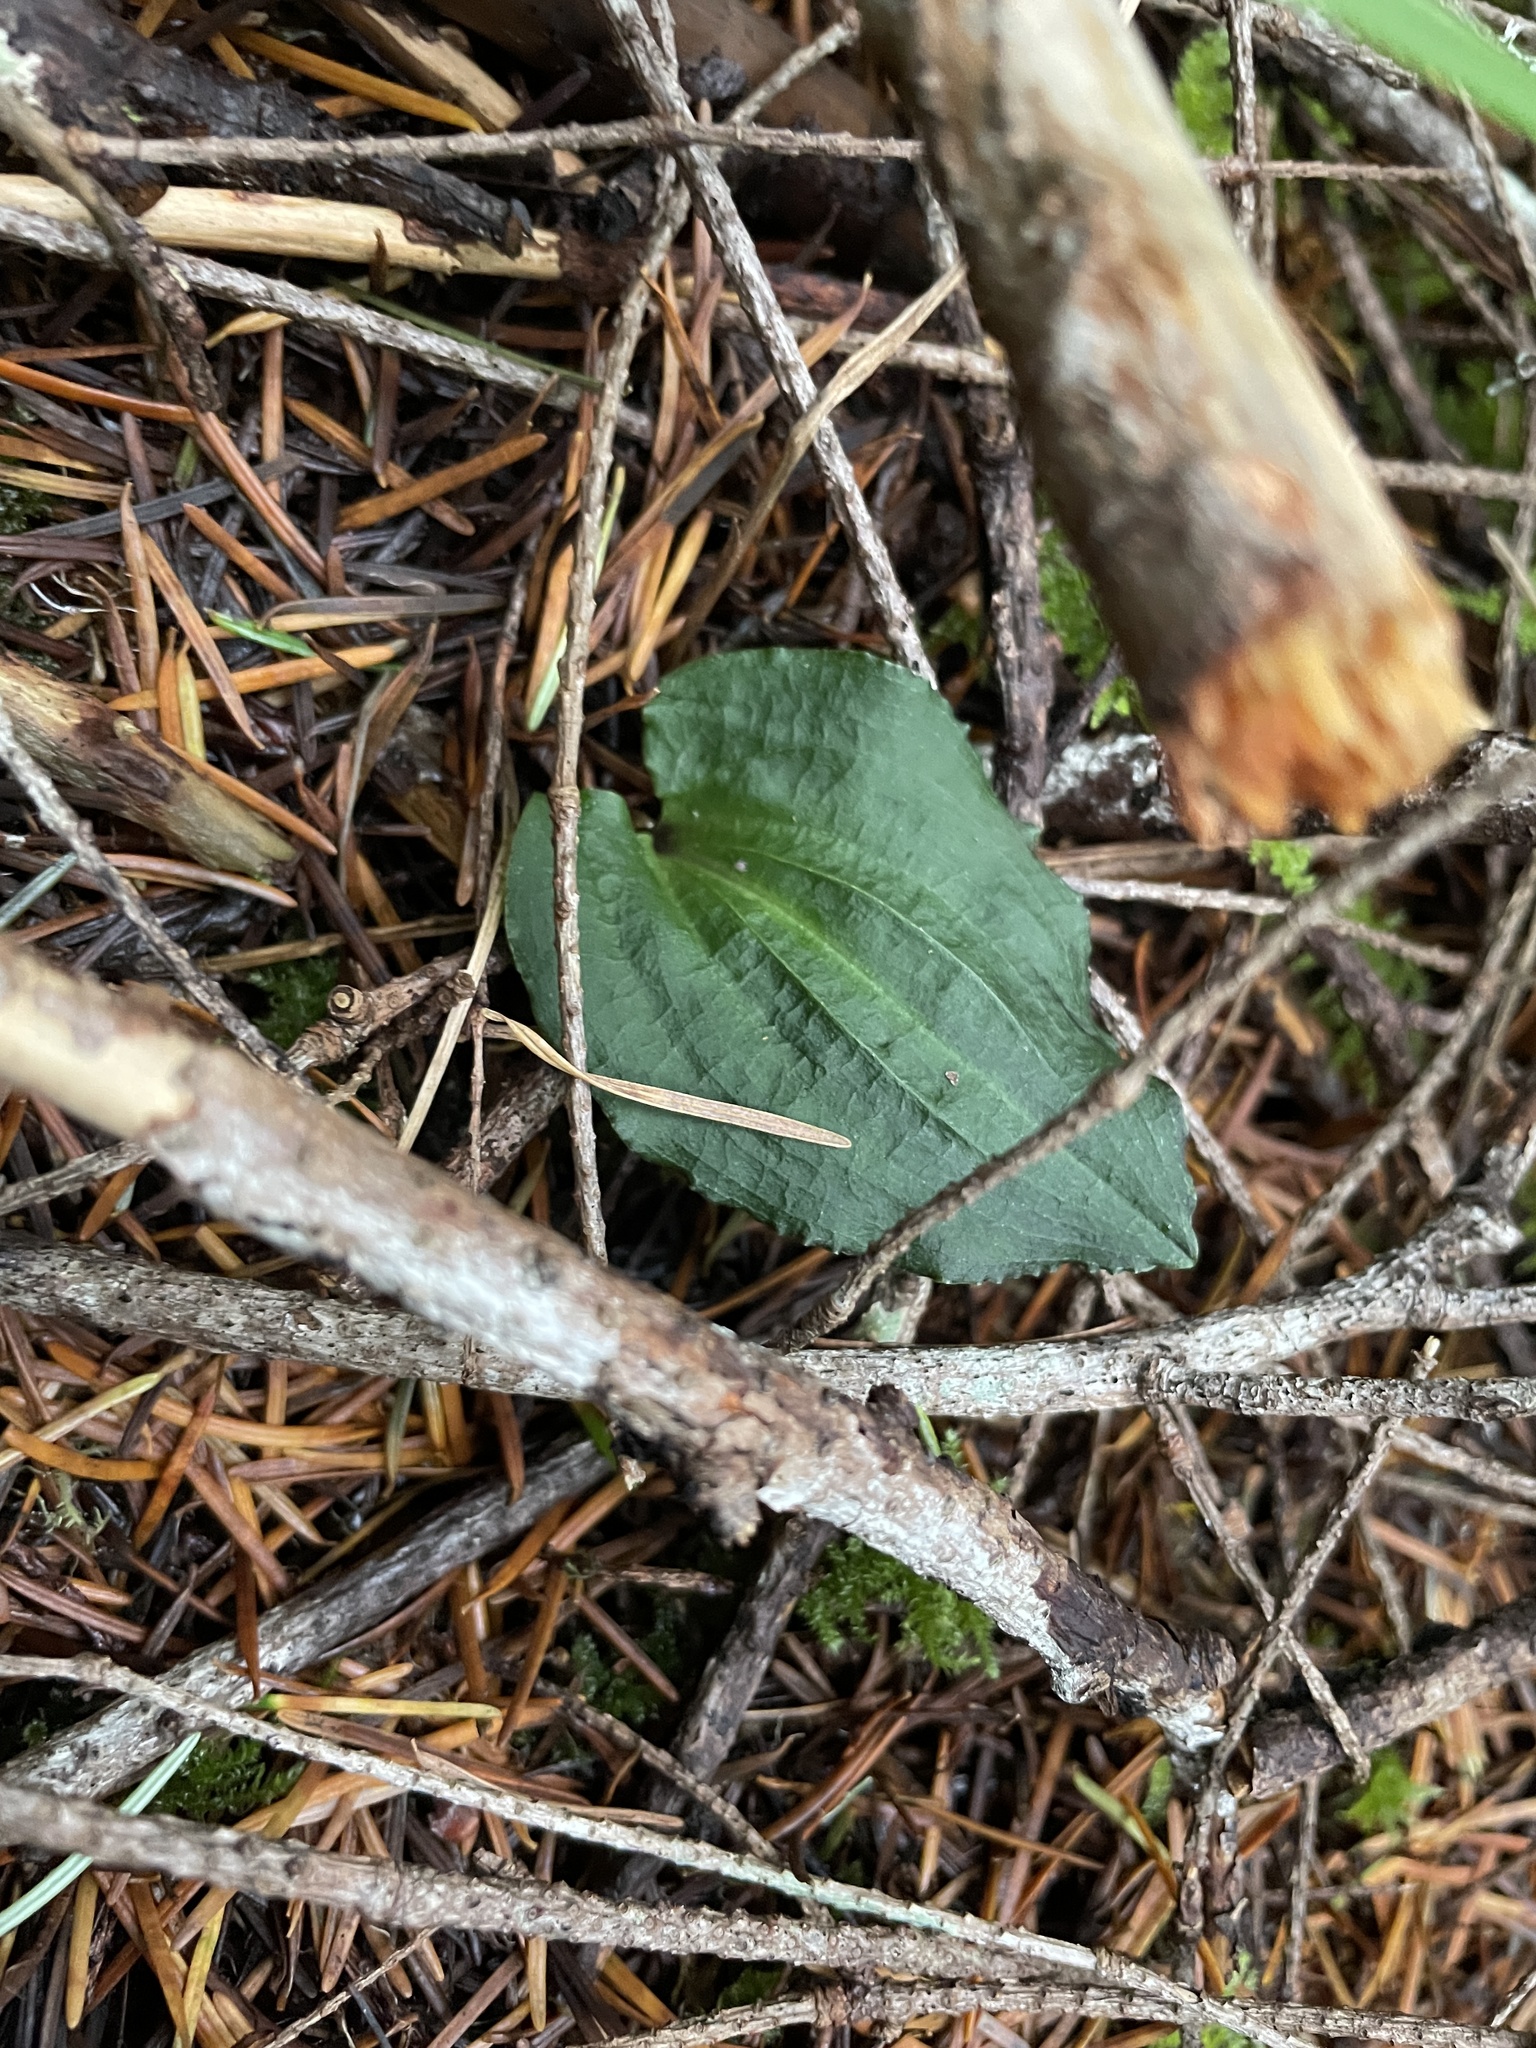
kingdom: Plantae
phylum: Tracheophyta
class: Liliopsida
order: Asparagales
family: Orchidaceae
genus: Calypso
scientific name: Calypso bulbosa
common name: Calypso
